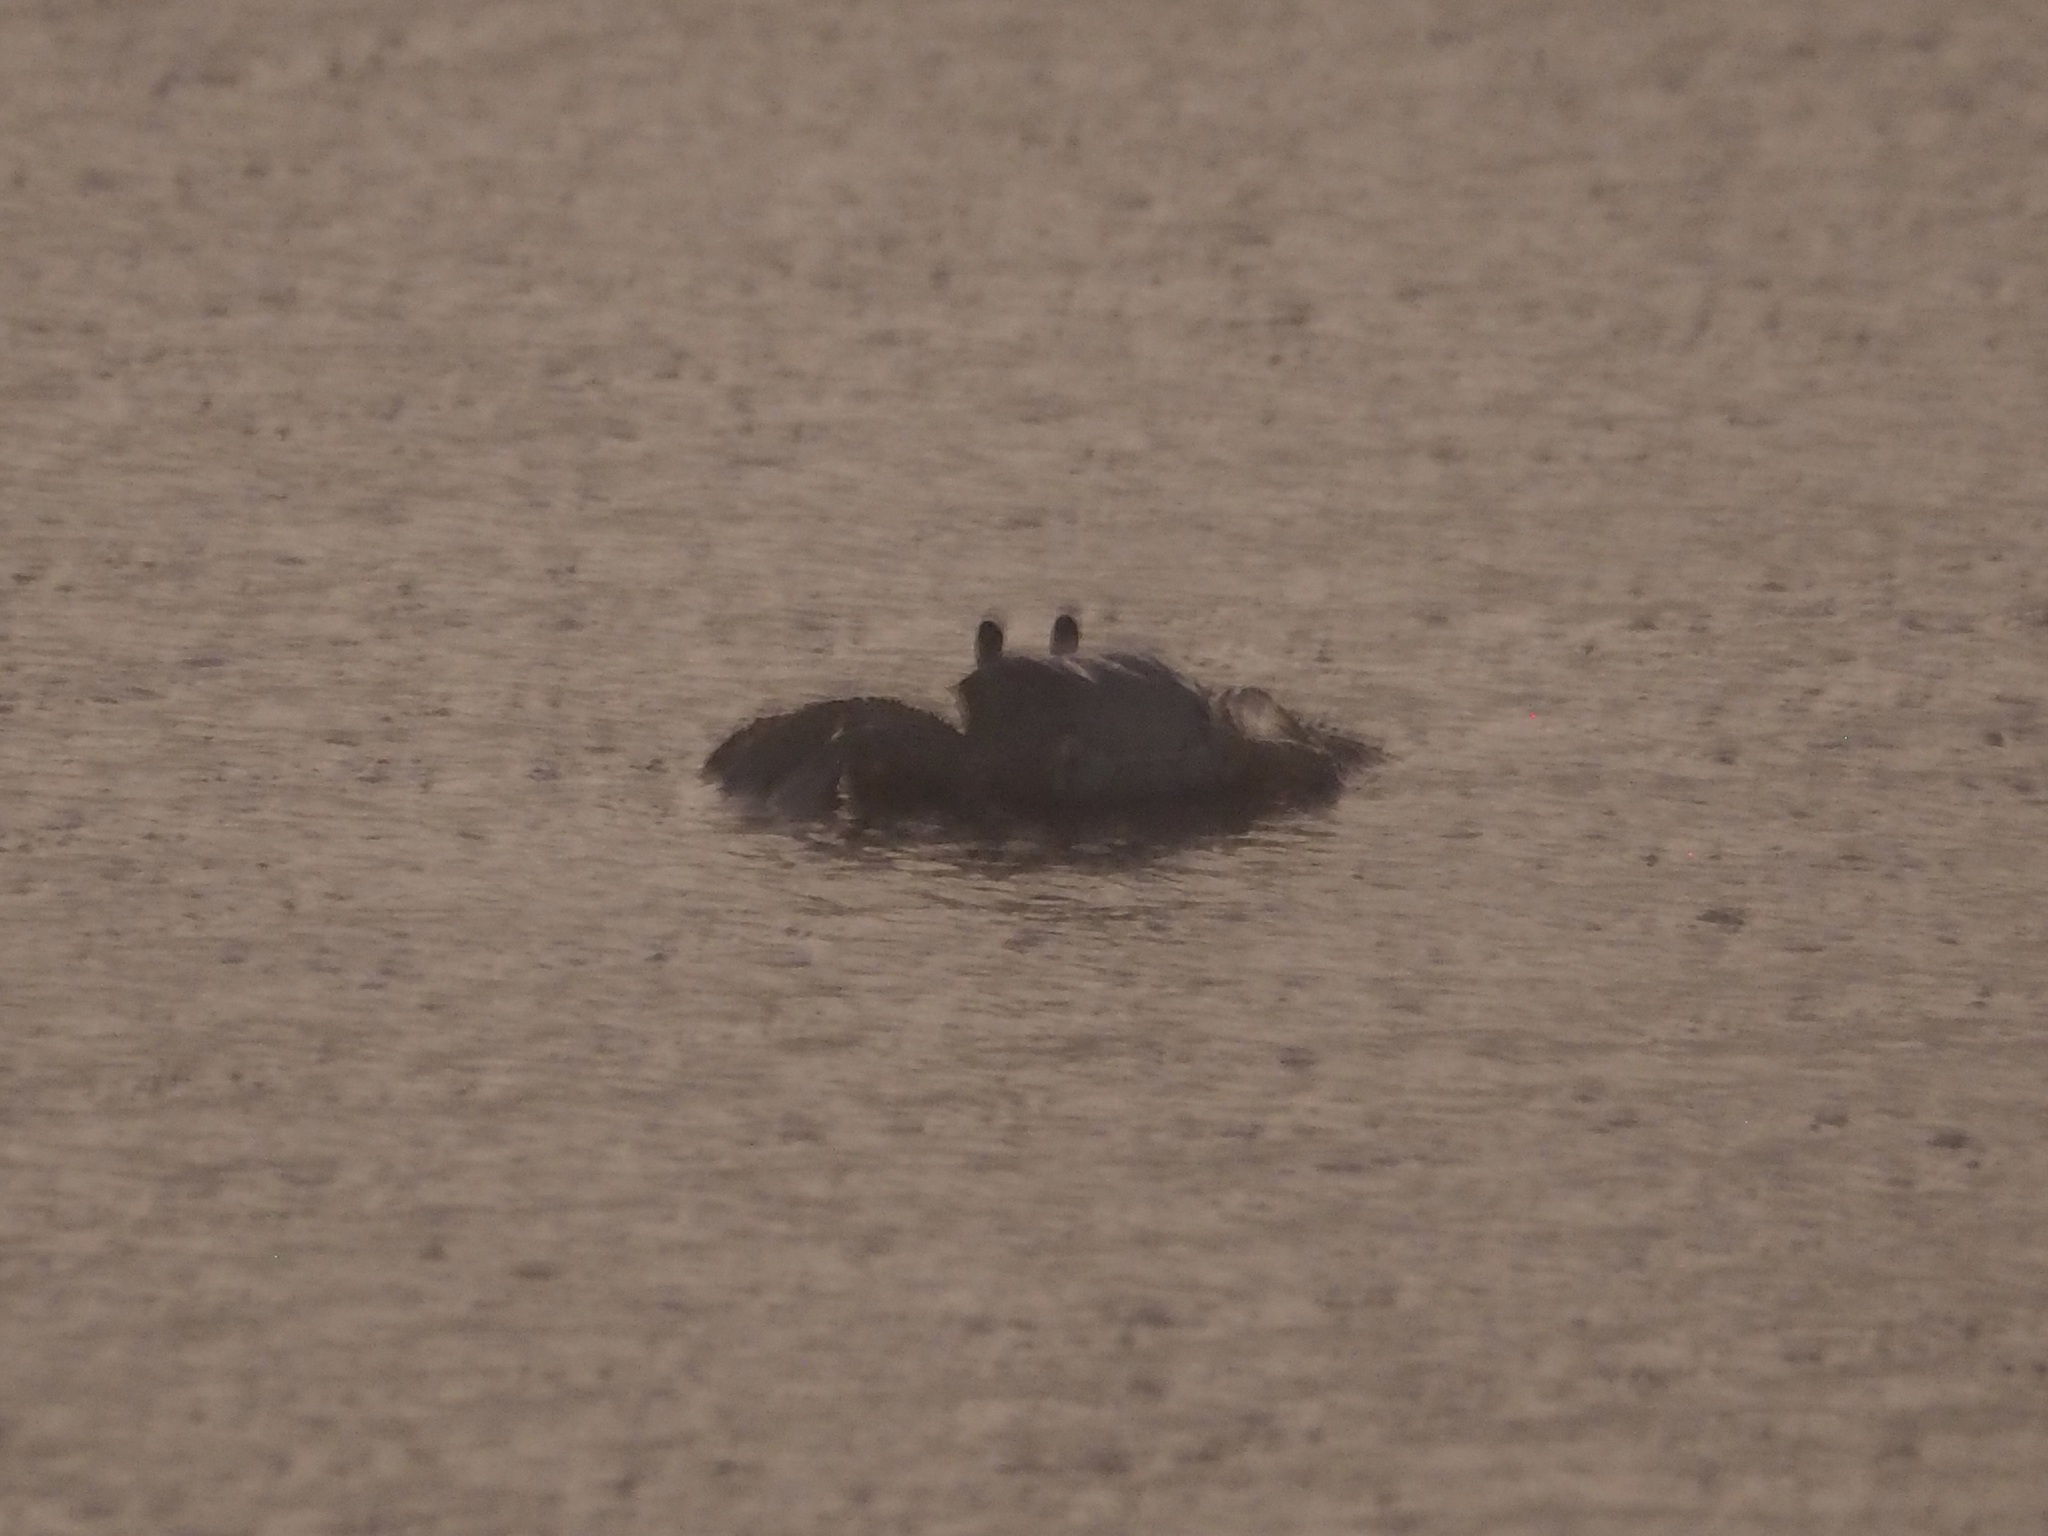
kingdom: Animalia
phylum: Arthropoda
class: Malacostraca
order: Decapoda
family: Ocypodidae
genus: Ocypode
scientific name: Ocypode quadrata
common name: Ghost crab
